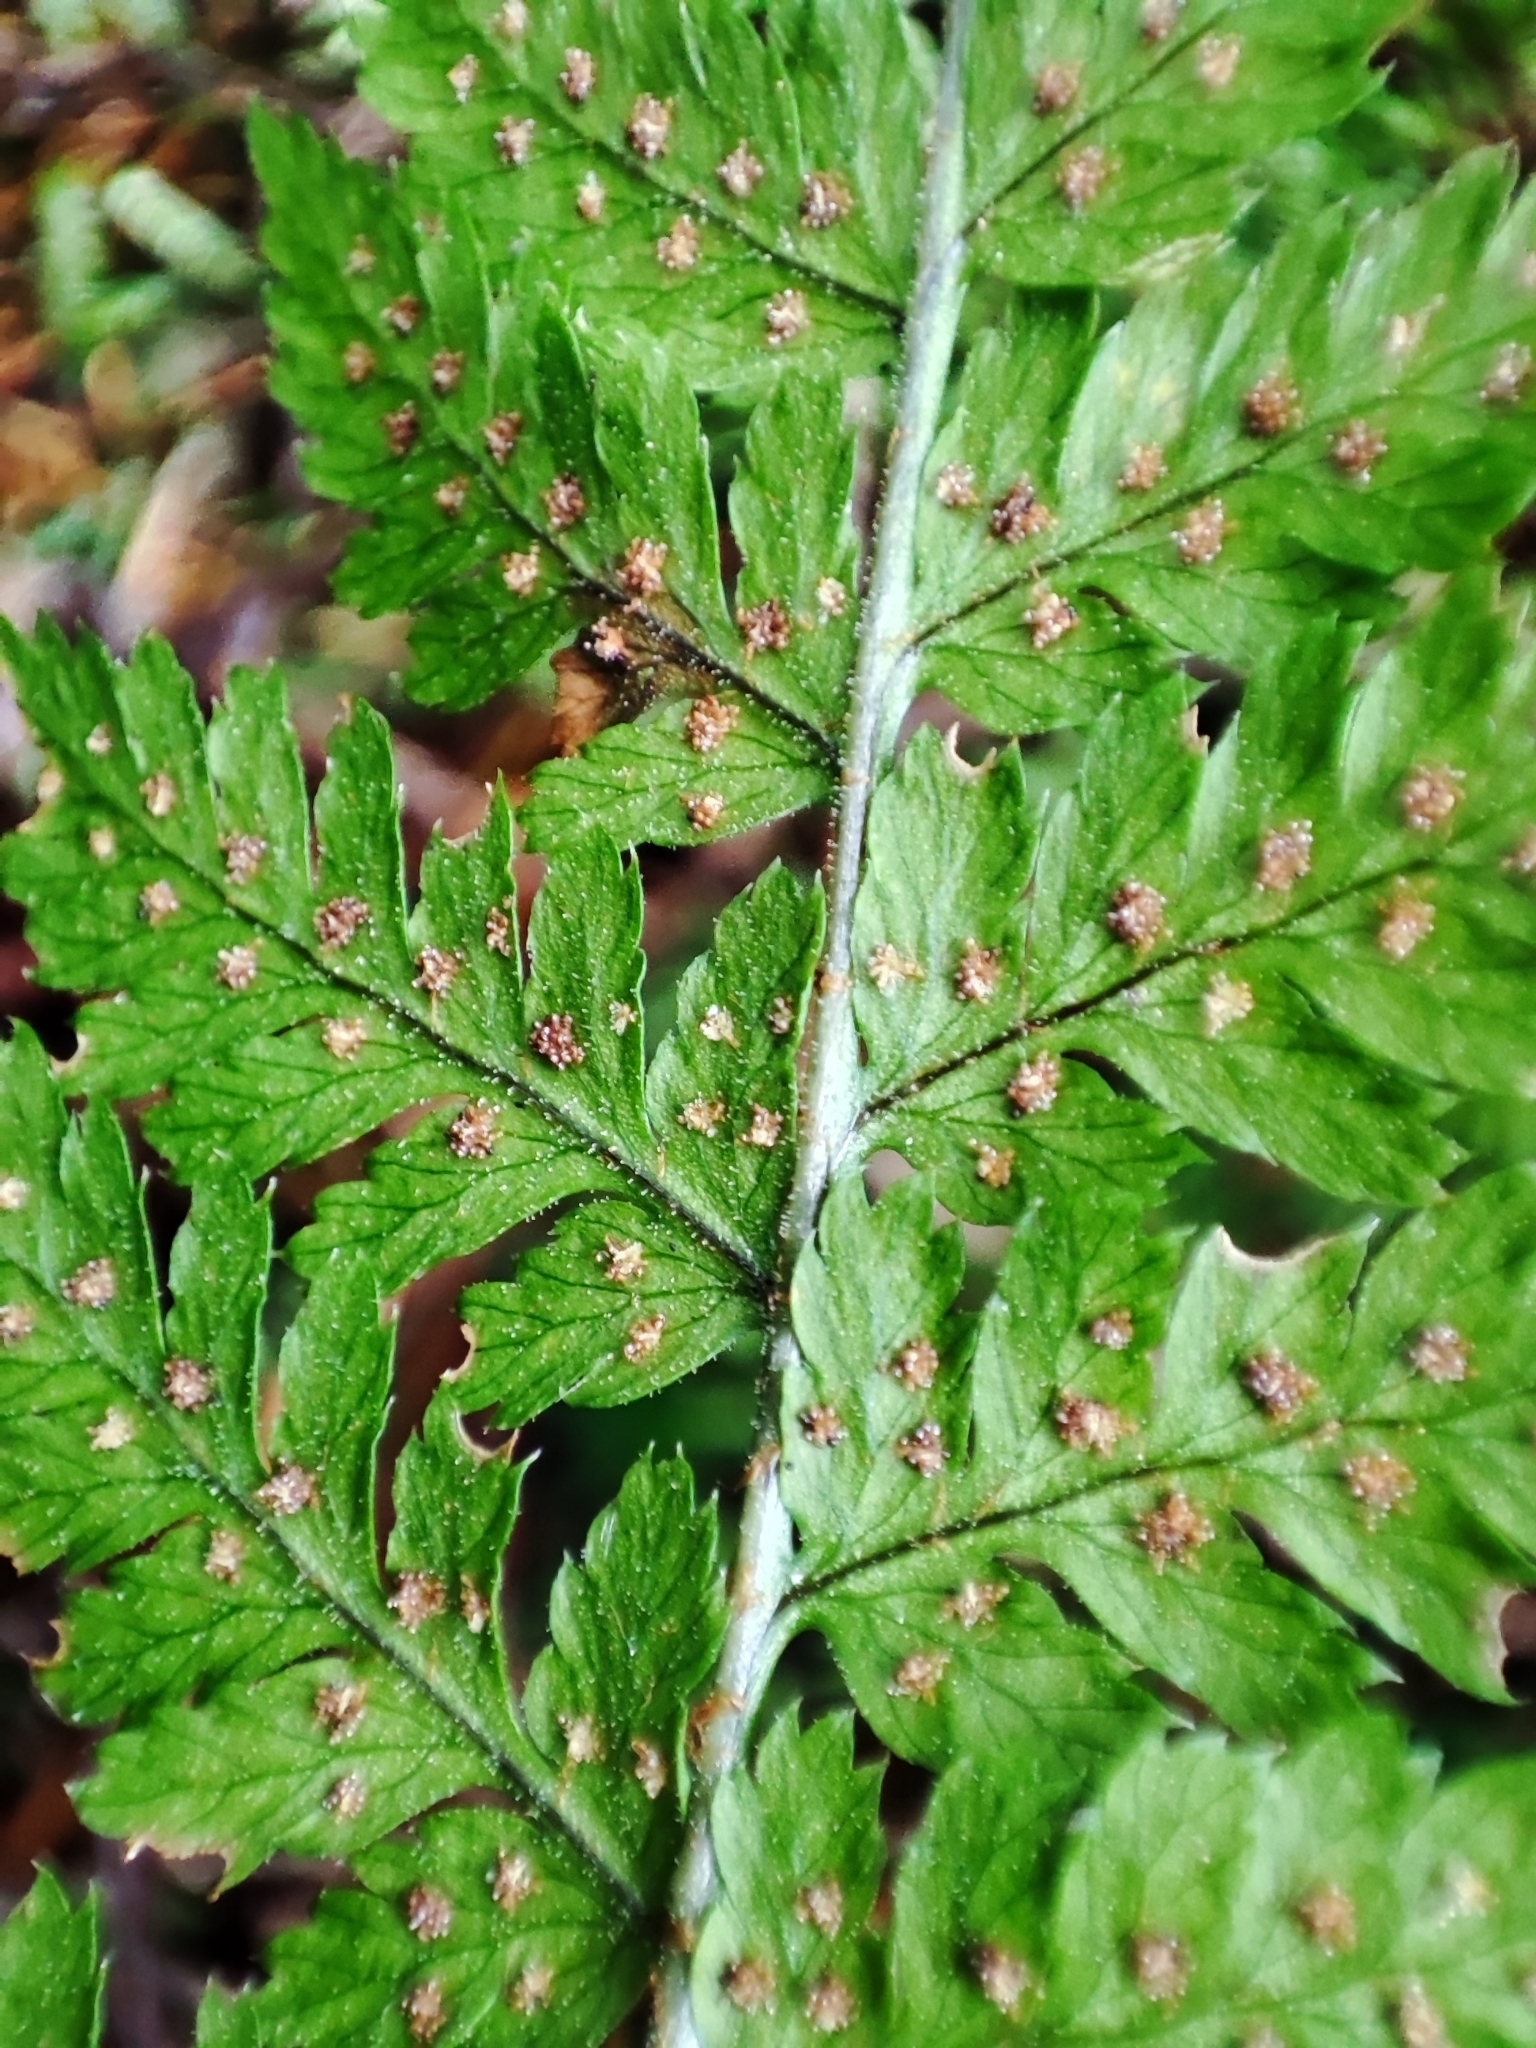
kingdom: Plantae
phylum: Tracheophyta
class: Polypodiopsida
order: Polypodiales
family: Dryopteridaceae
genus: Dryopteris
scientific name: Dryopteris expansa
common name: Northern buckler fern
